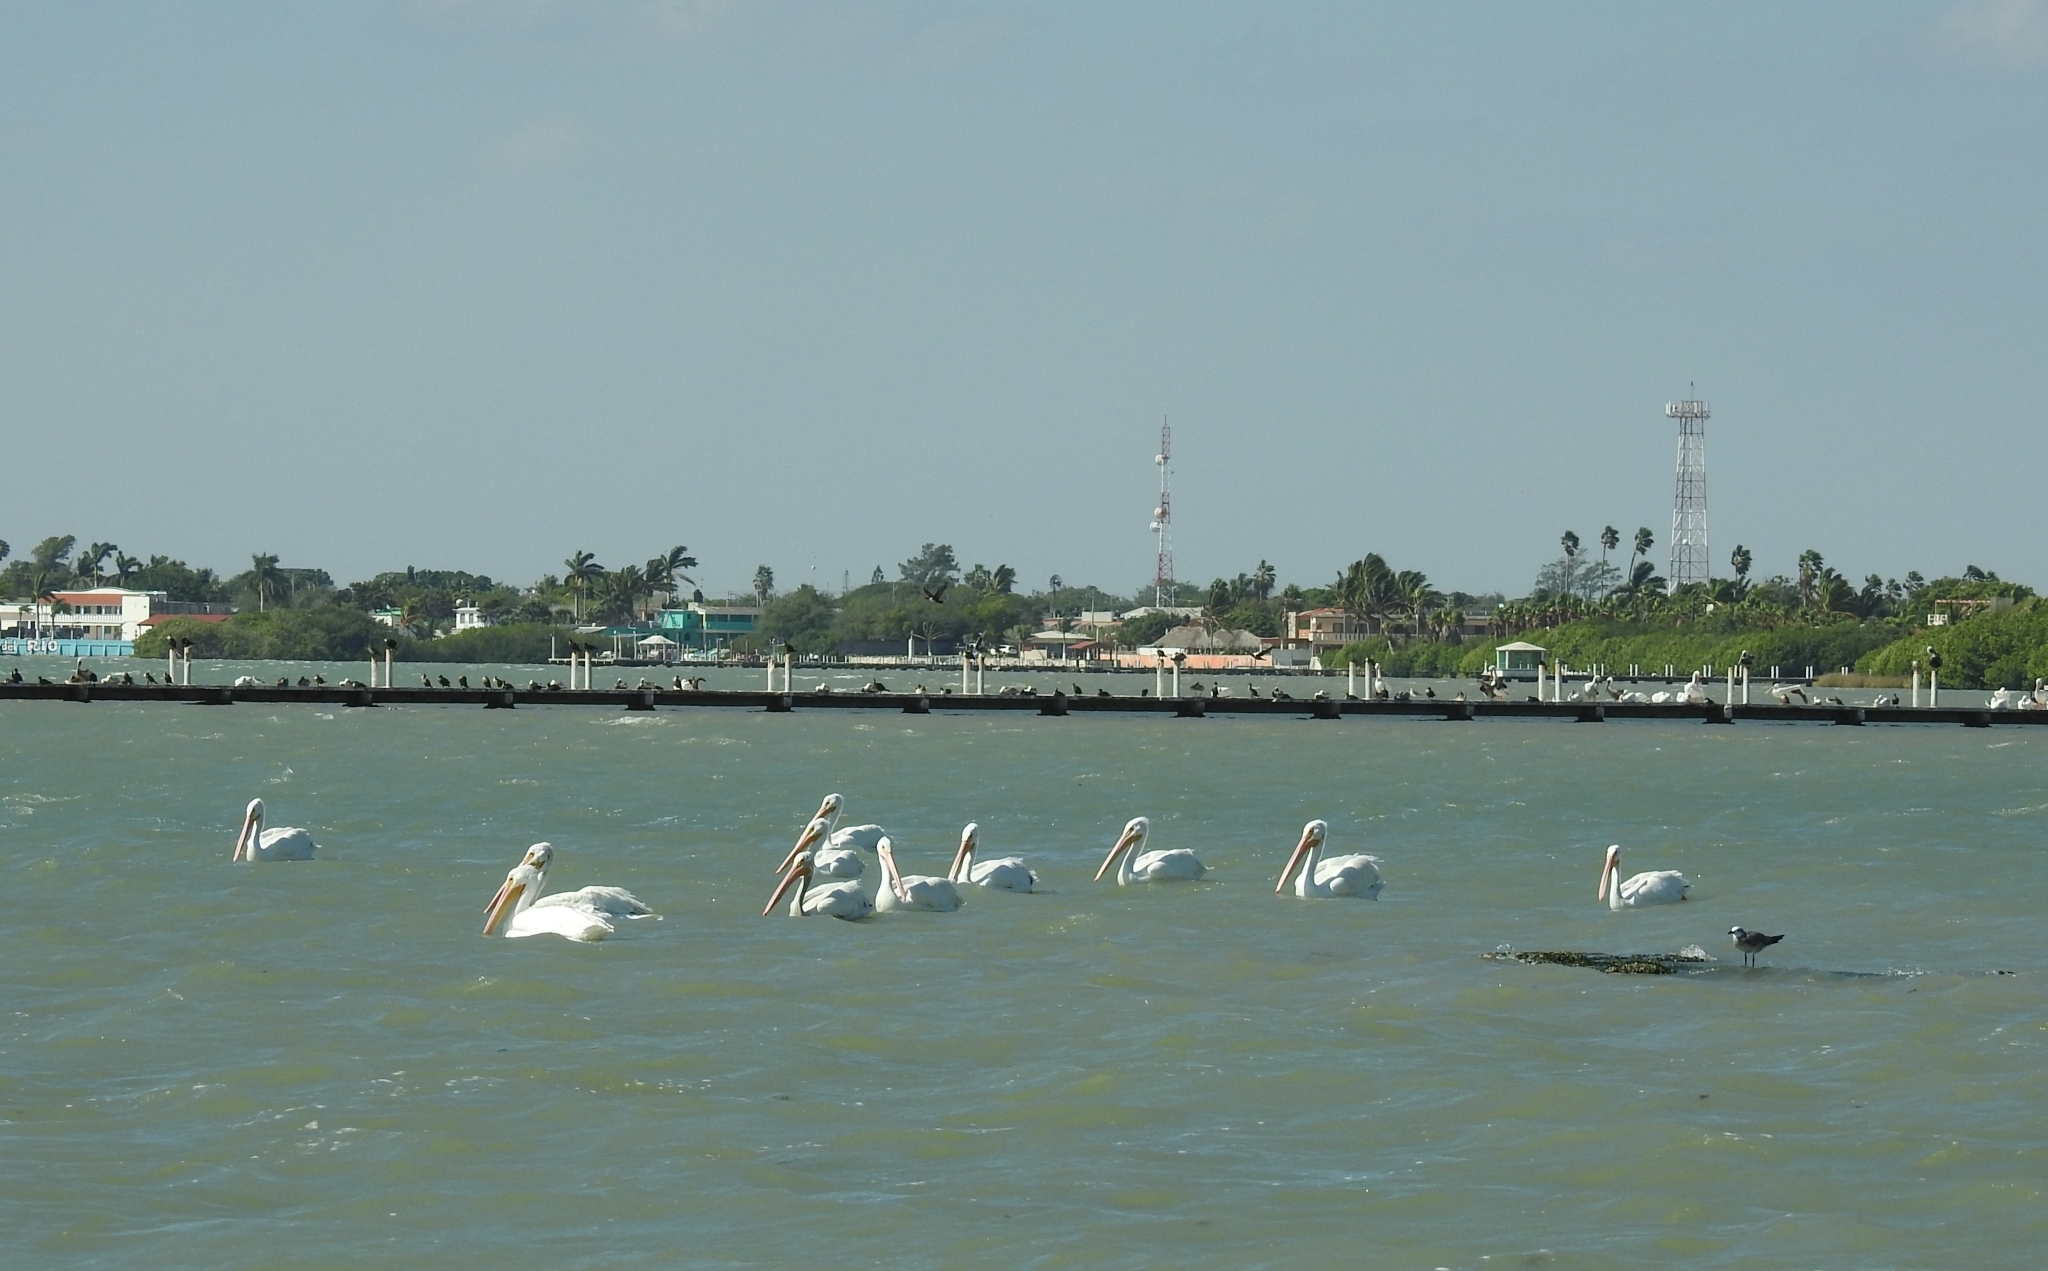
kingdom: Animalia
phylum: Chordata
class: Aves
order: Pelecaniformes
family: Pelecanidae
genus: Pelecanus
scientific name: Pelecanus erythrorhynchos
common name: American white pelican
